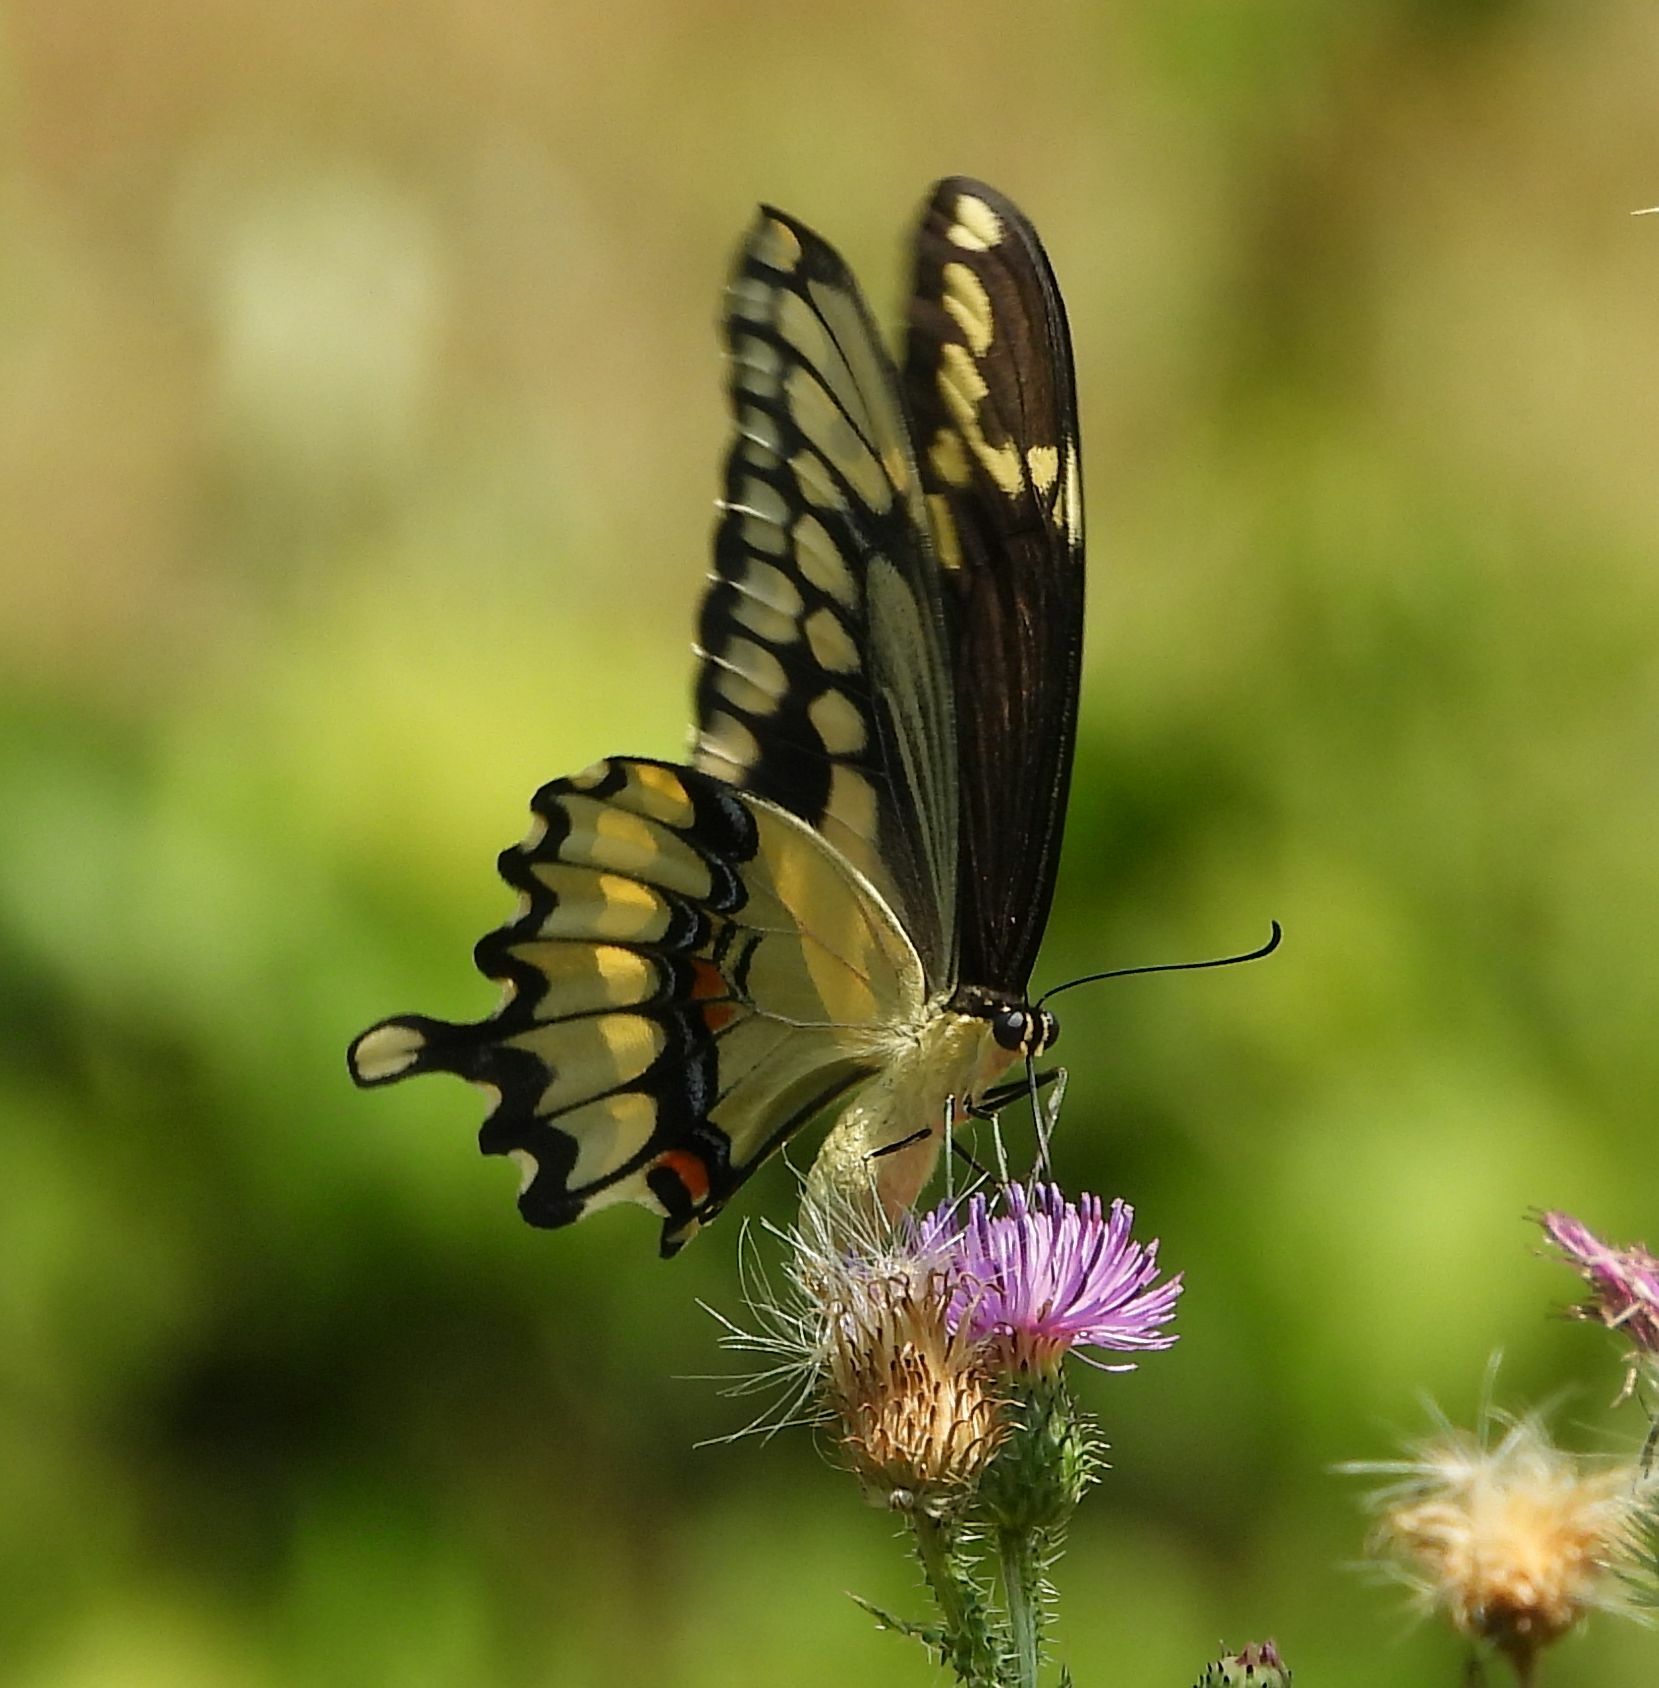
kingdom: Animalia
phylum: Arthropoda
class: Insecta
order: Lepidoptera
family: Papilionidae
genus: Papilio
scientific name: Papilio cresphontes
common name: Giant swallowtail
